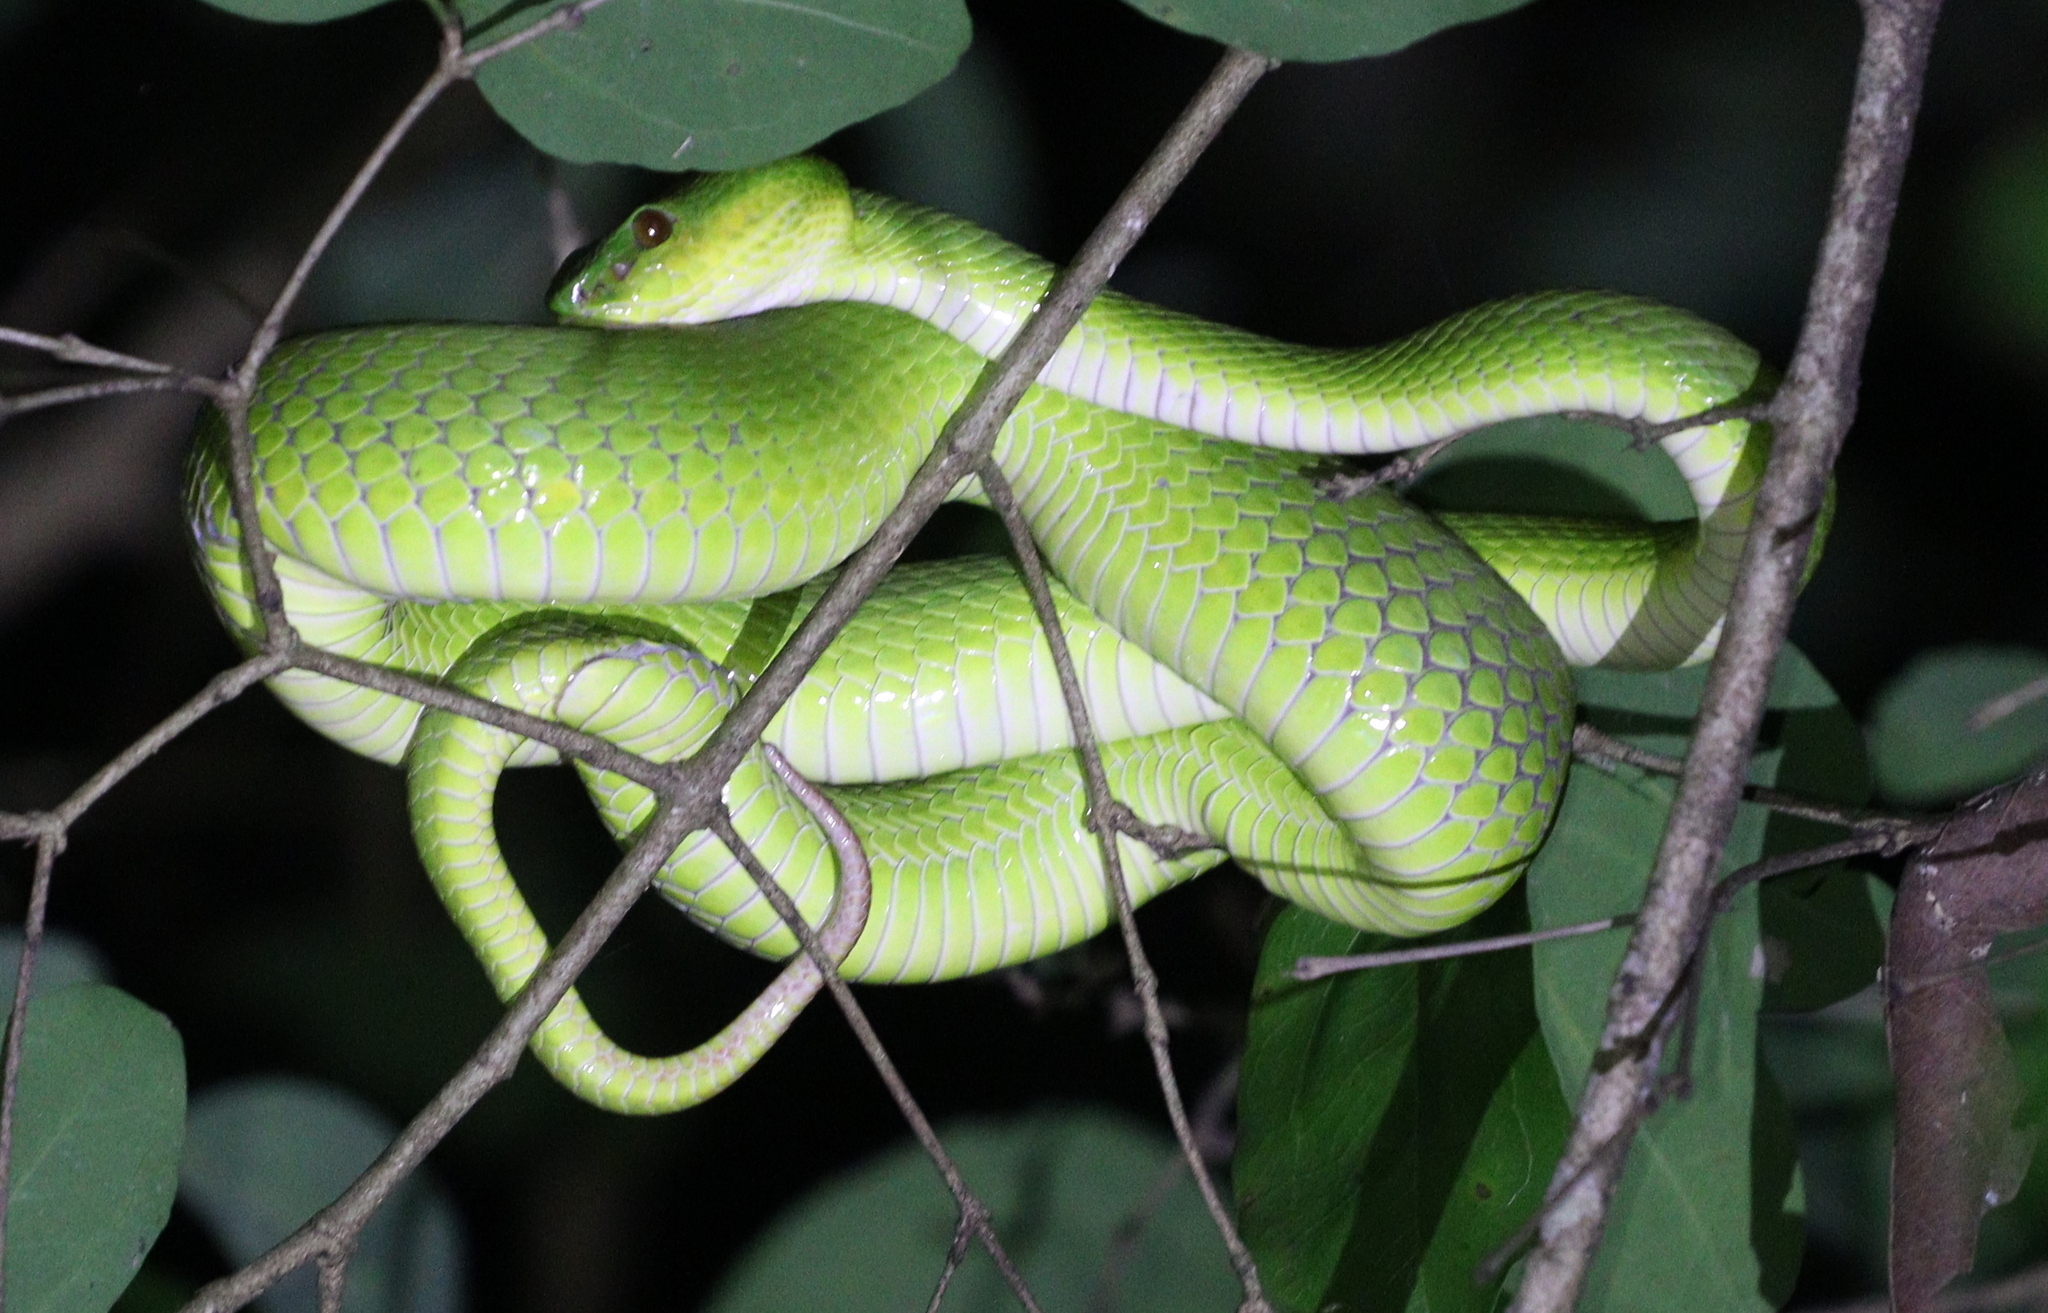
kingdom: Animalia
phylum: Chordata
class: Squamata
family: Viperidae
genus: Trimeresurus
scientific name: Trimeresurus insularis
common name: White-lipped island pitviper
